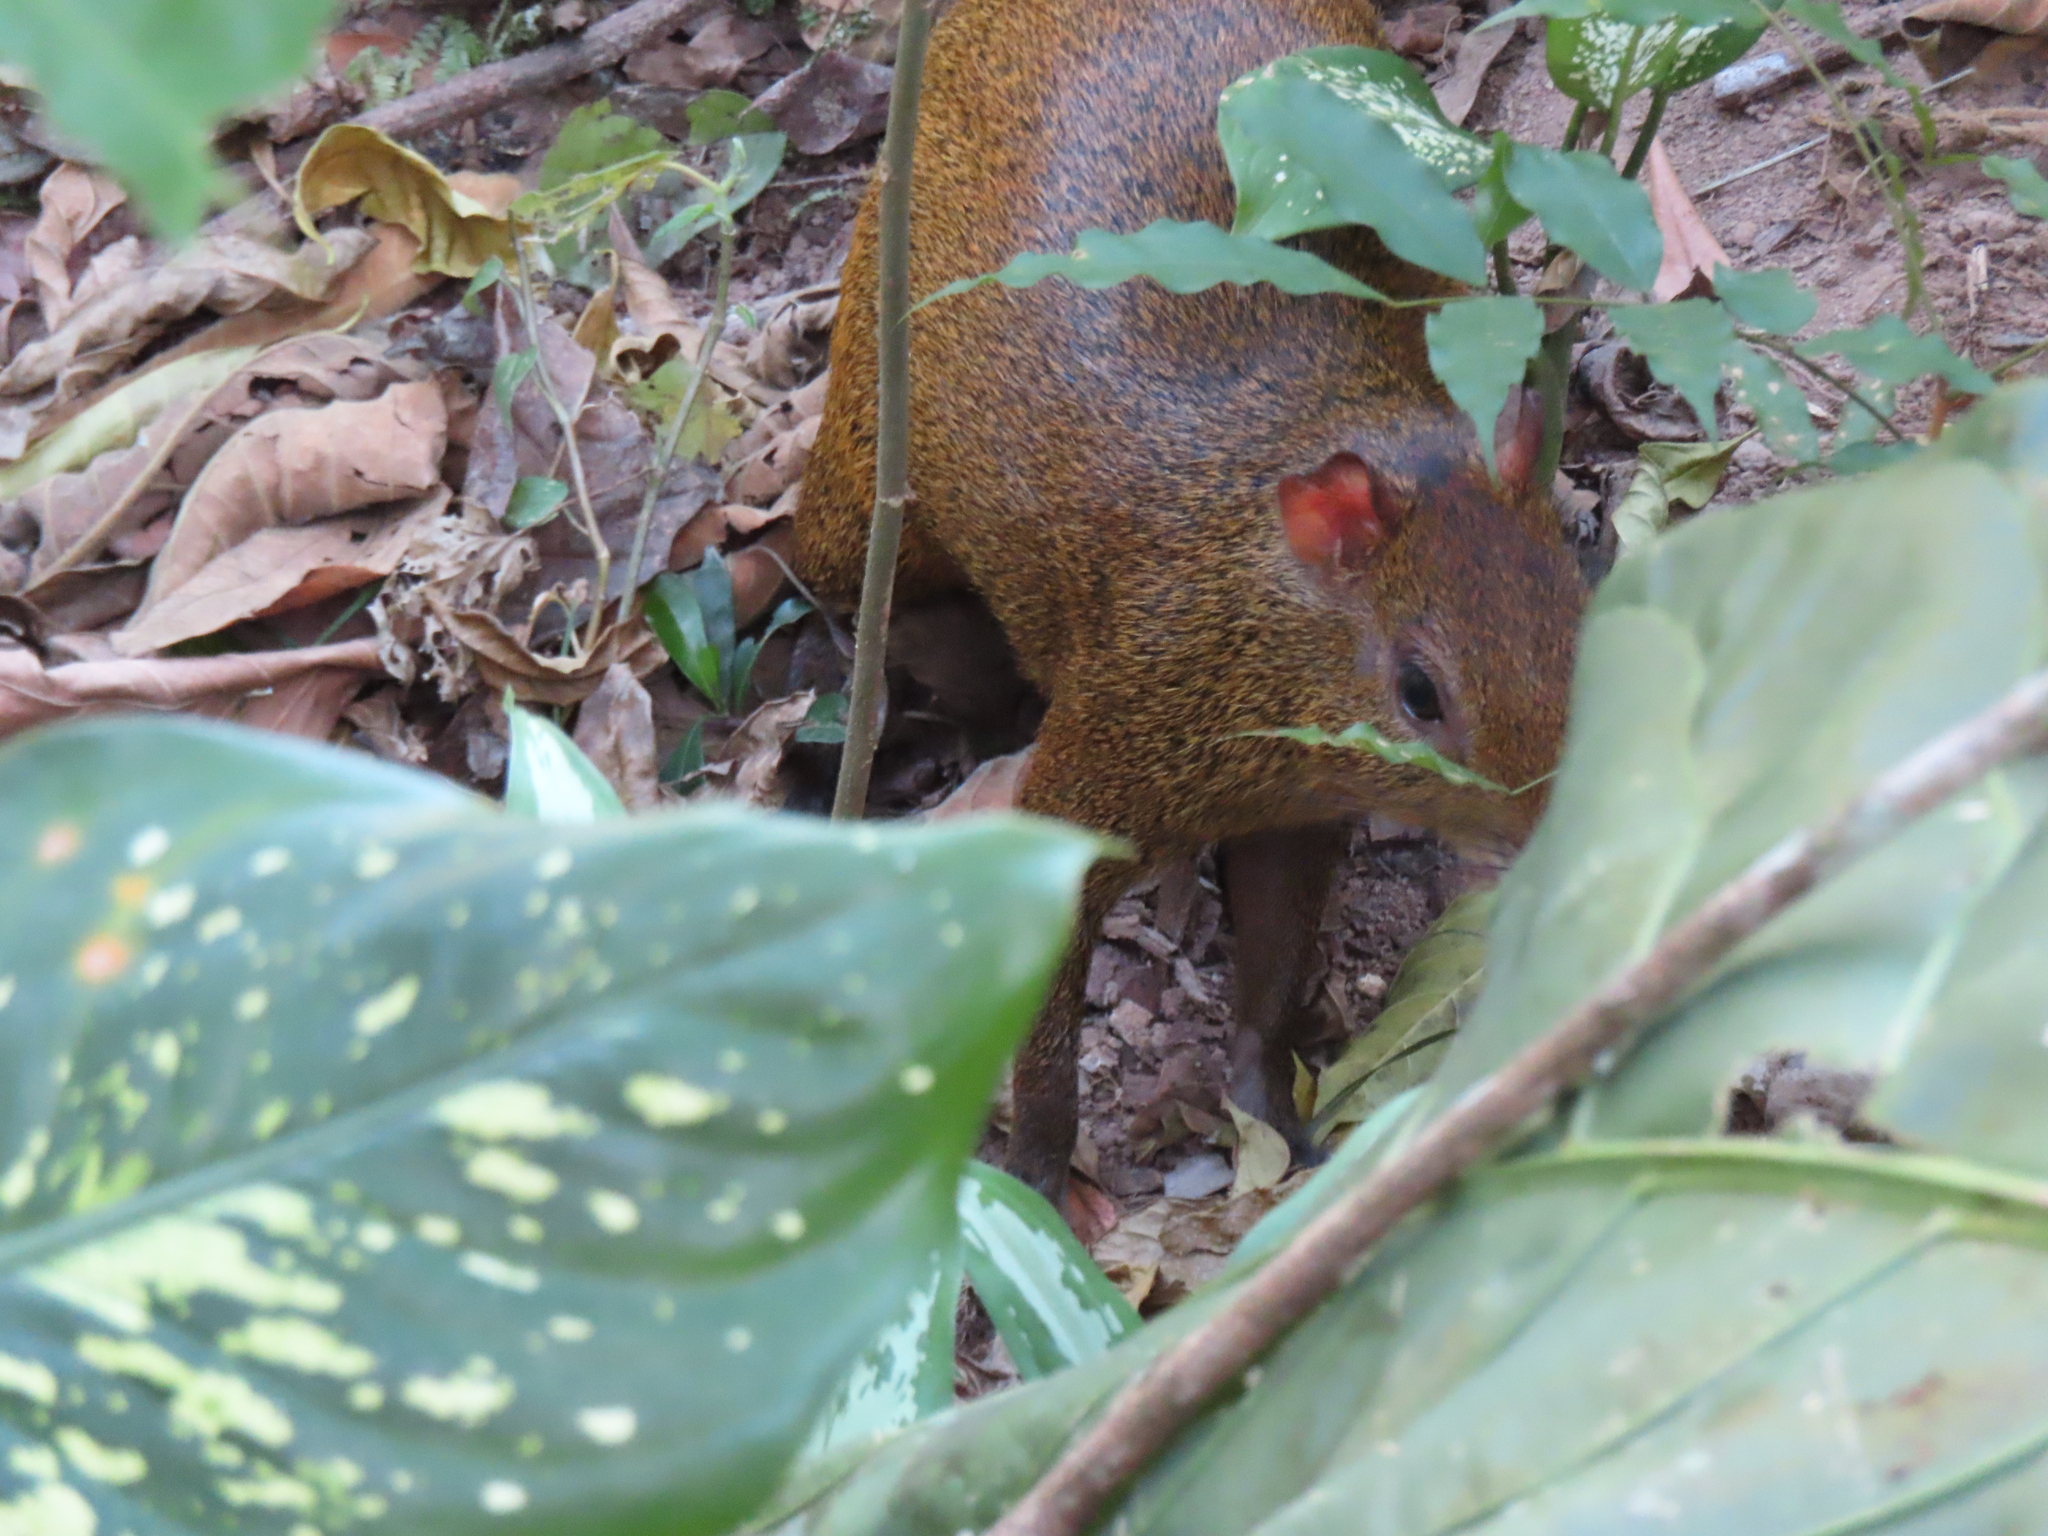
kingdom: Animalia
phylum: Chordata
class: Mammalia
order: Rodentia
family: Dasyproctidae
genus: Dasyprocta
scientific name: Dasyprocta punctata
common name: Central american agouti
